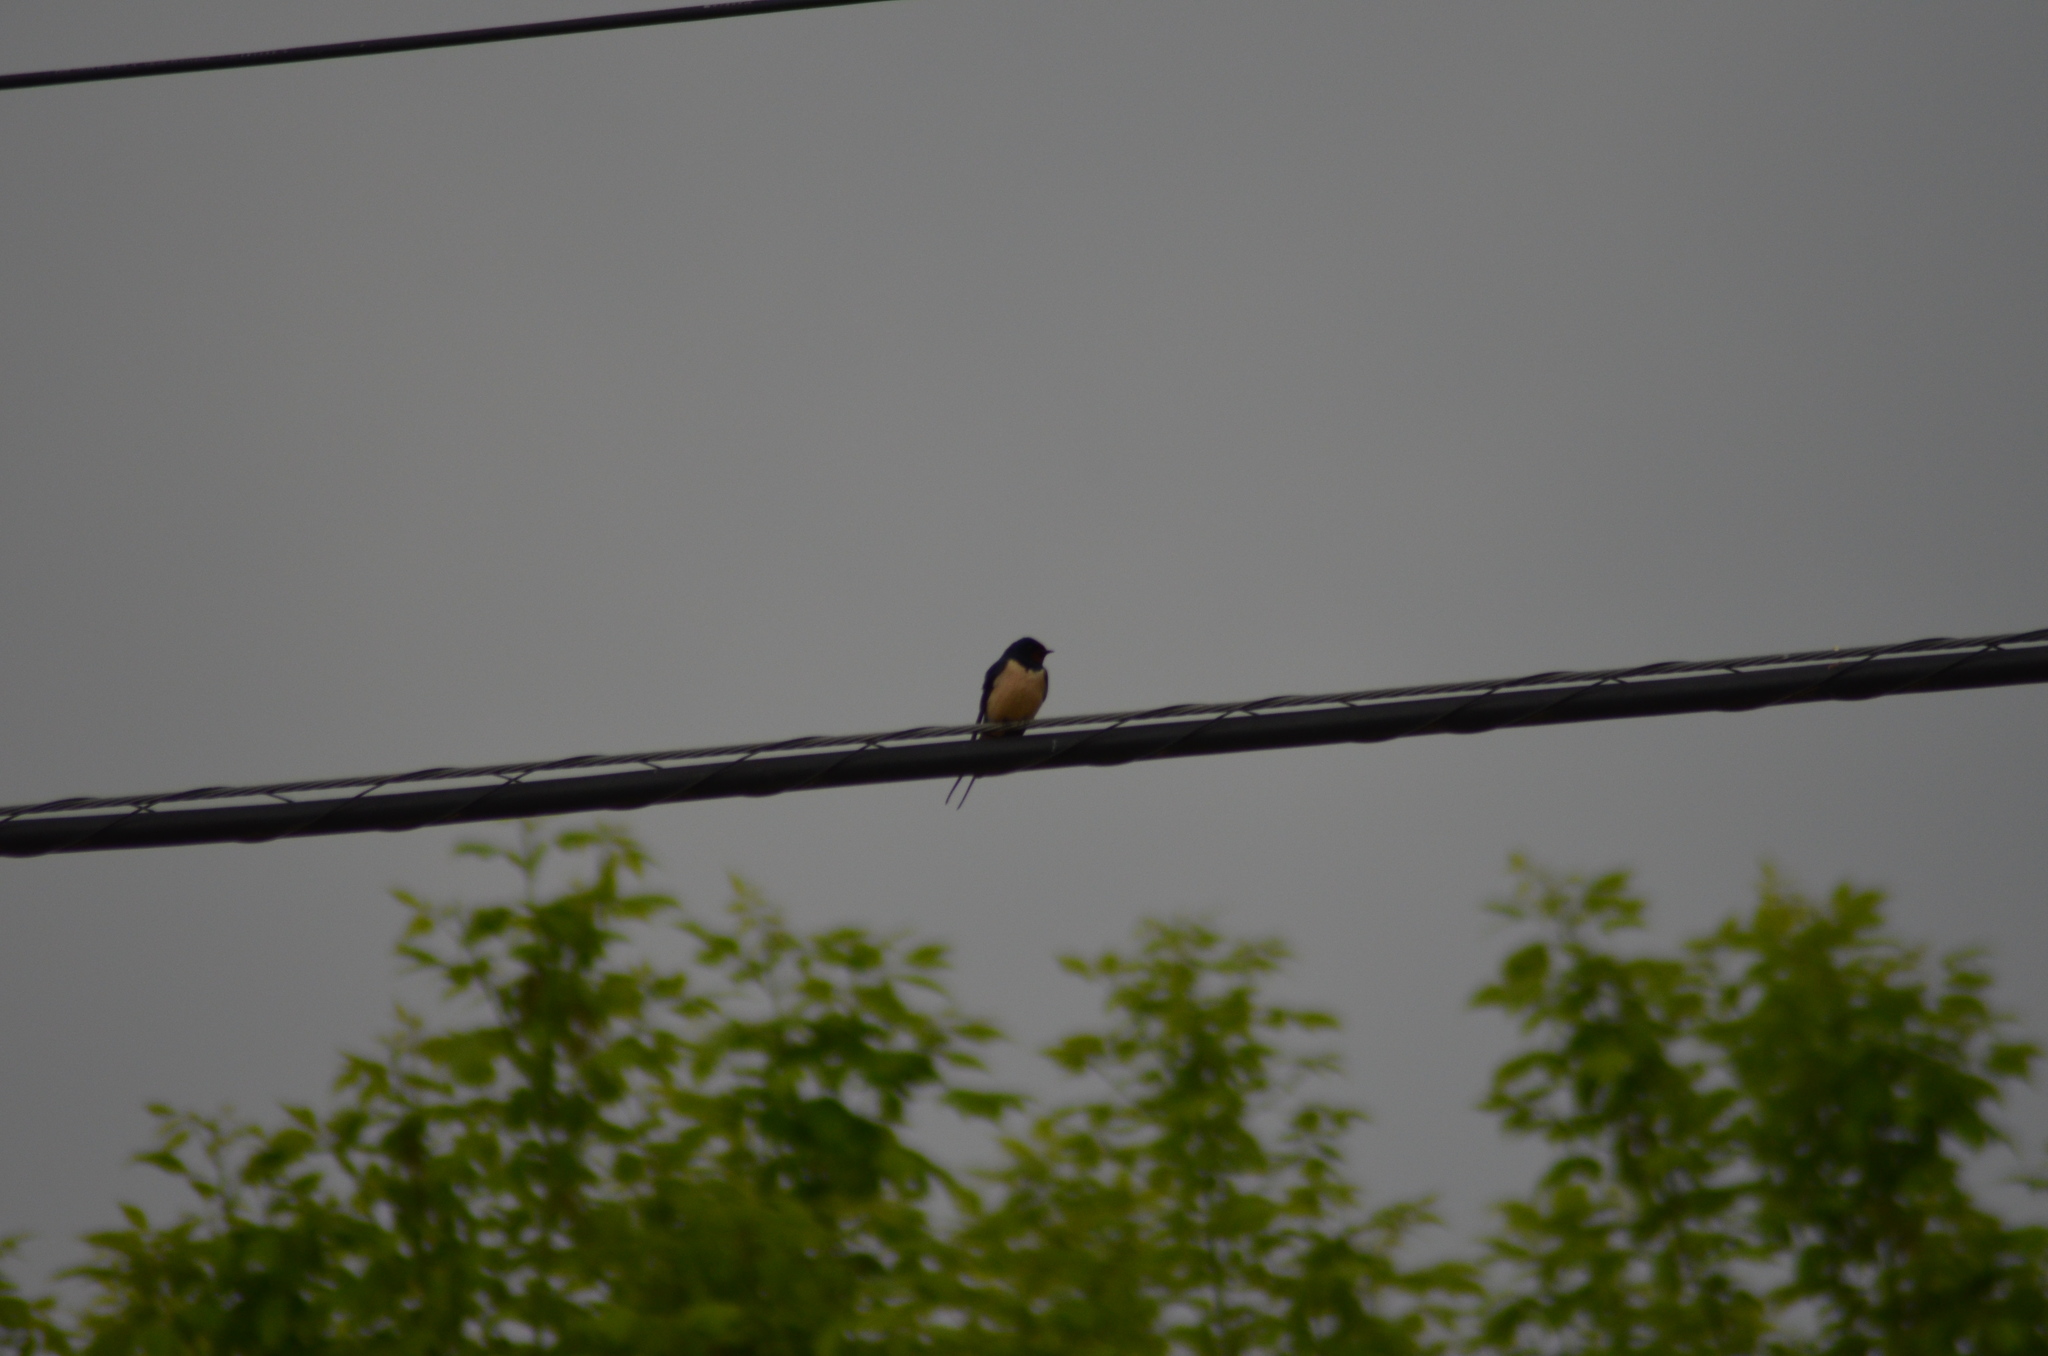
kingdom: Animalia
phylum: Chordata
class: Aves
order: Passeriformes
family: Hirundinidae
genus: Hirundo
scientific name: Hirundo rustica
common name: Barn swallow
